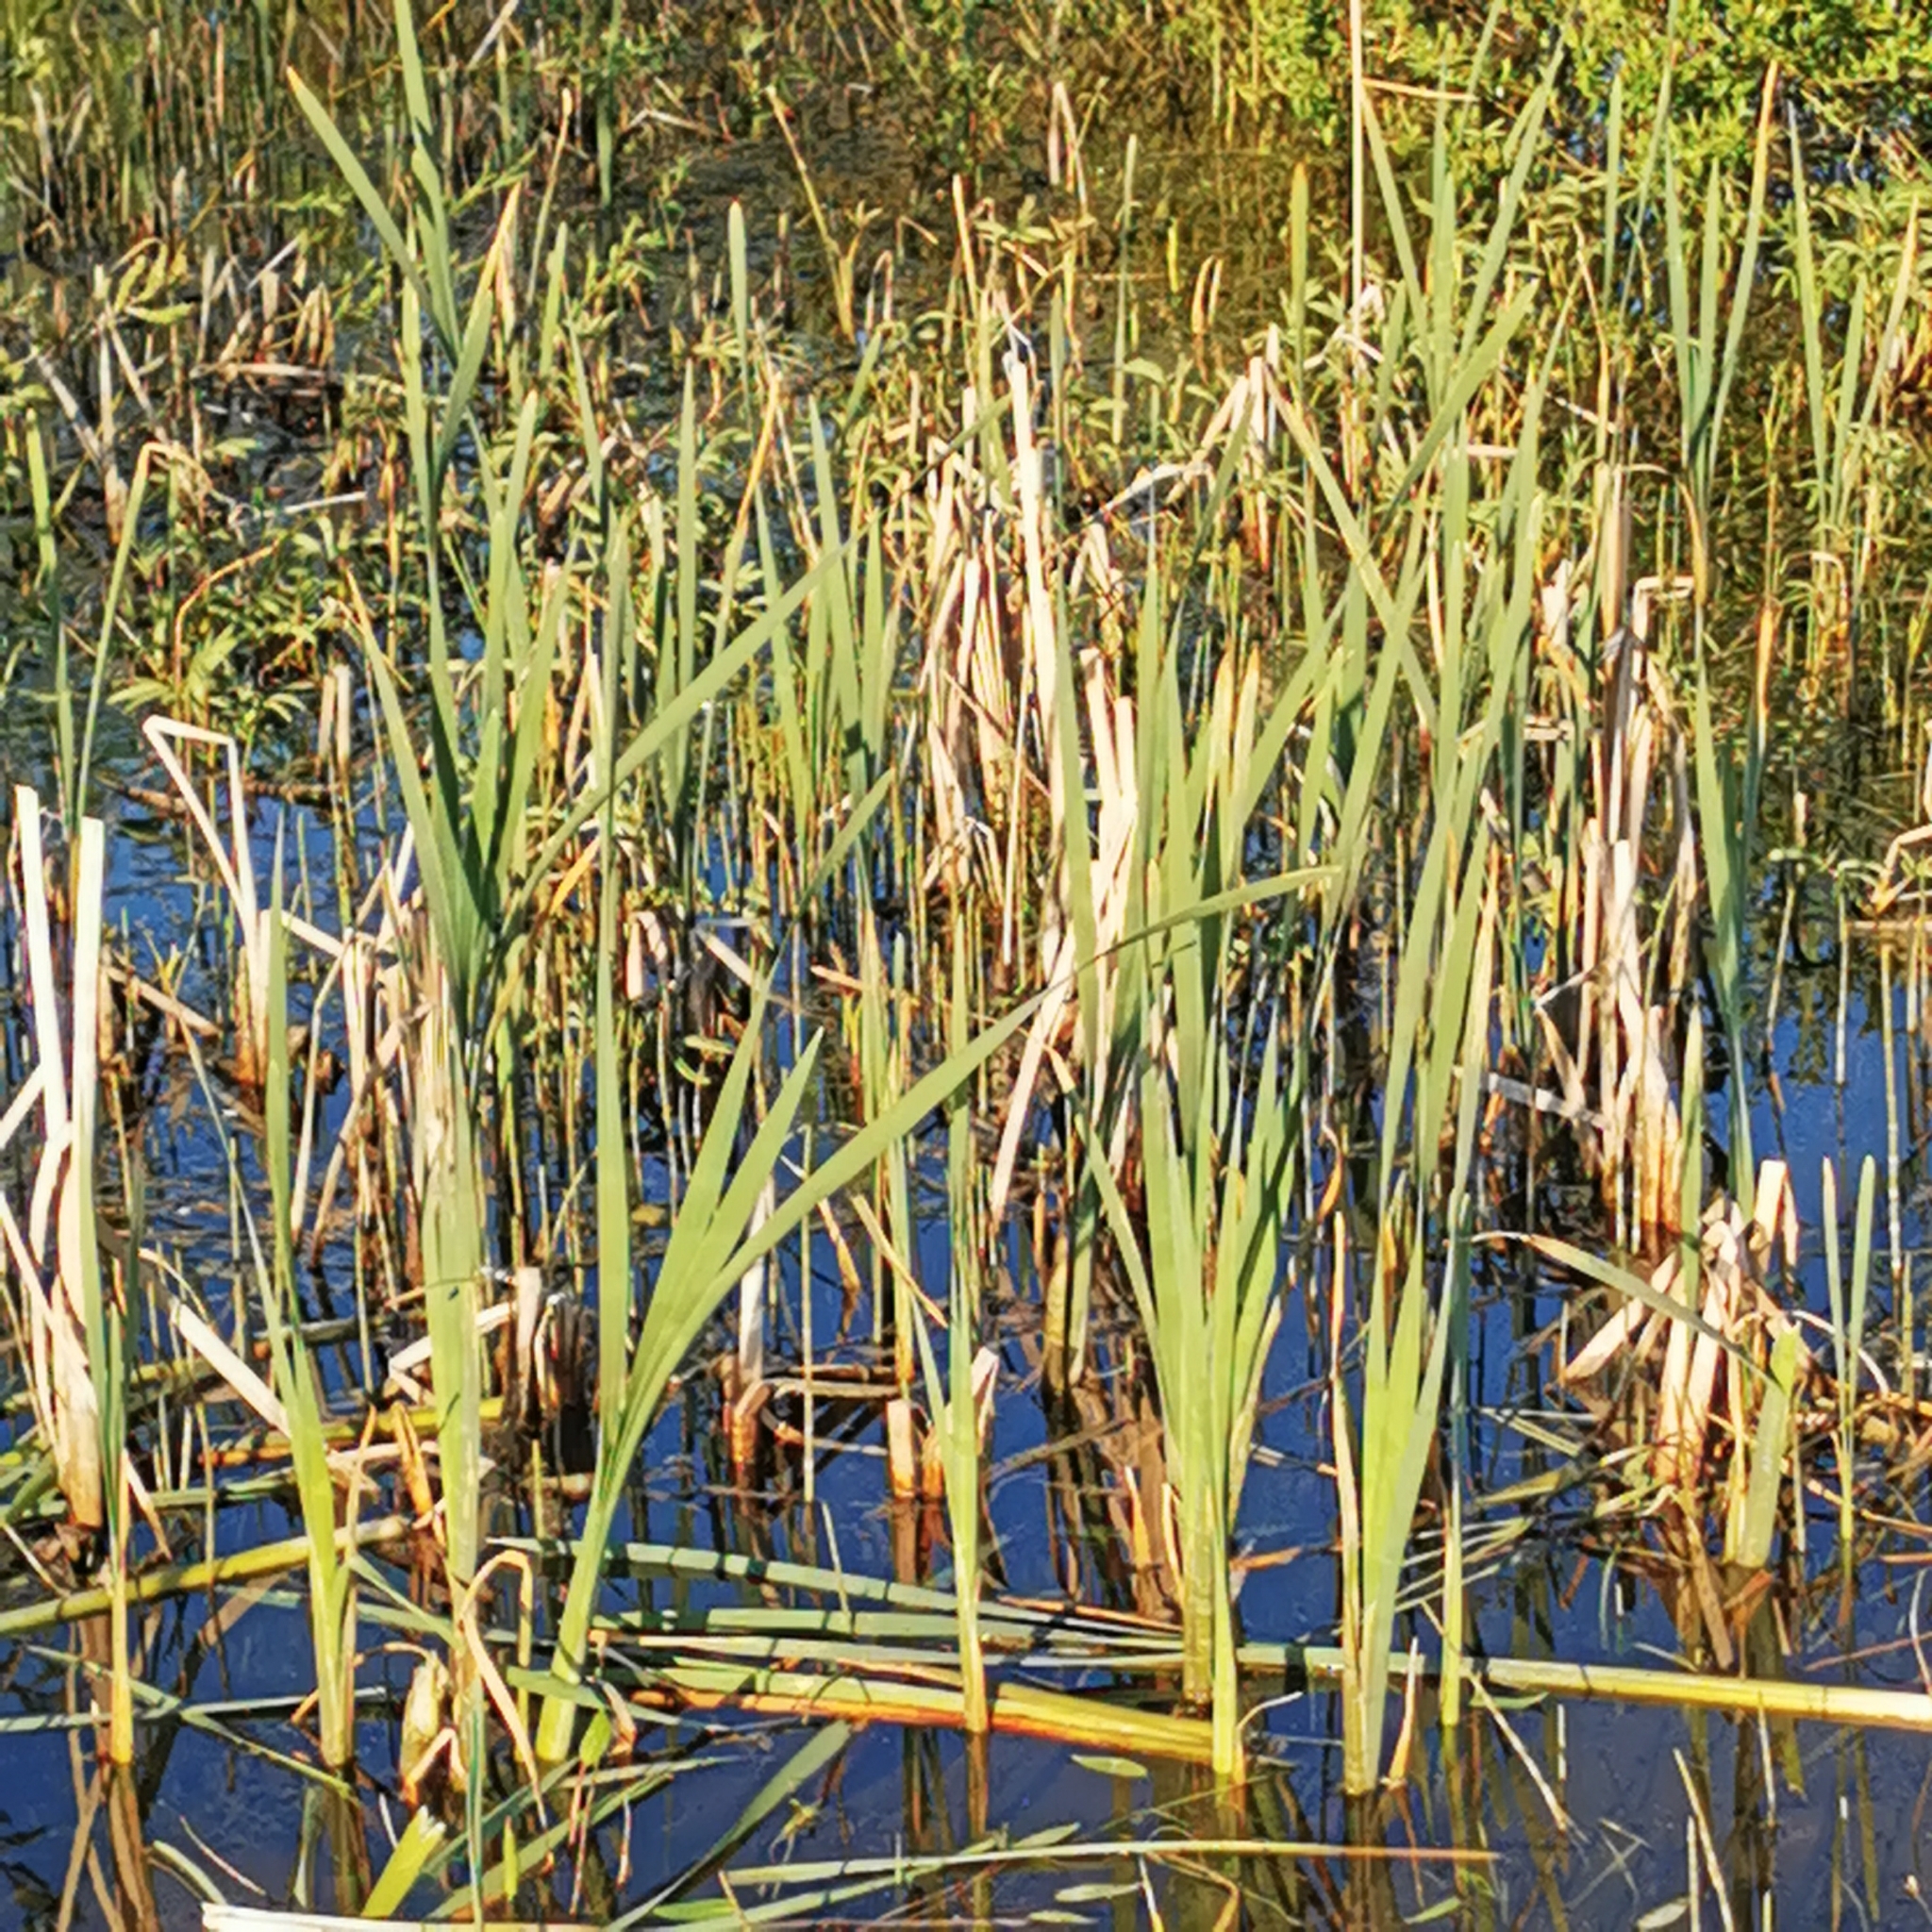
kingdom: Plantae
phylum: Tracheophyta
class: Liliopsida
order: Poales
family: Typhaceae
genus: Typha
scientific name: Typha latifolia
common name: Broadleaf cattail
